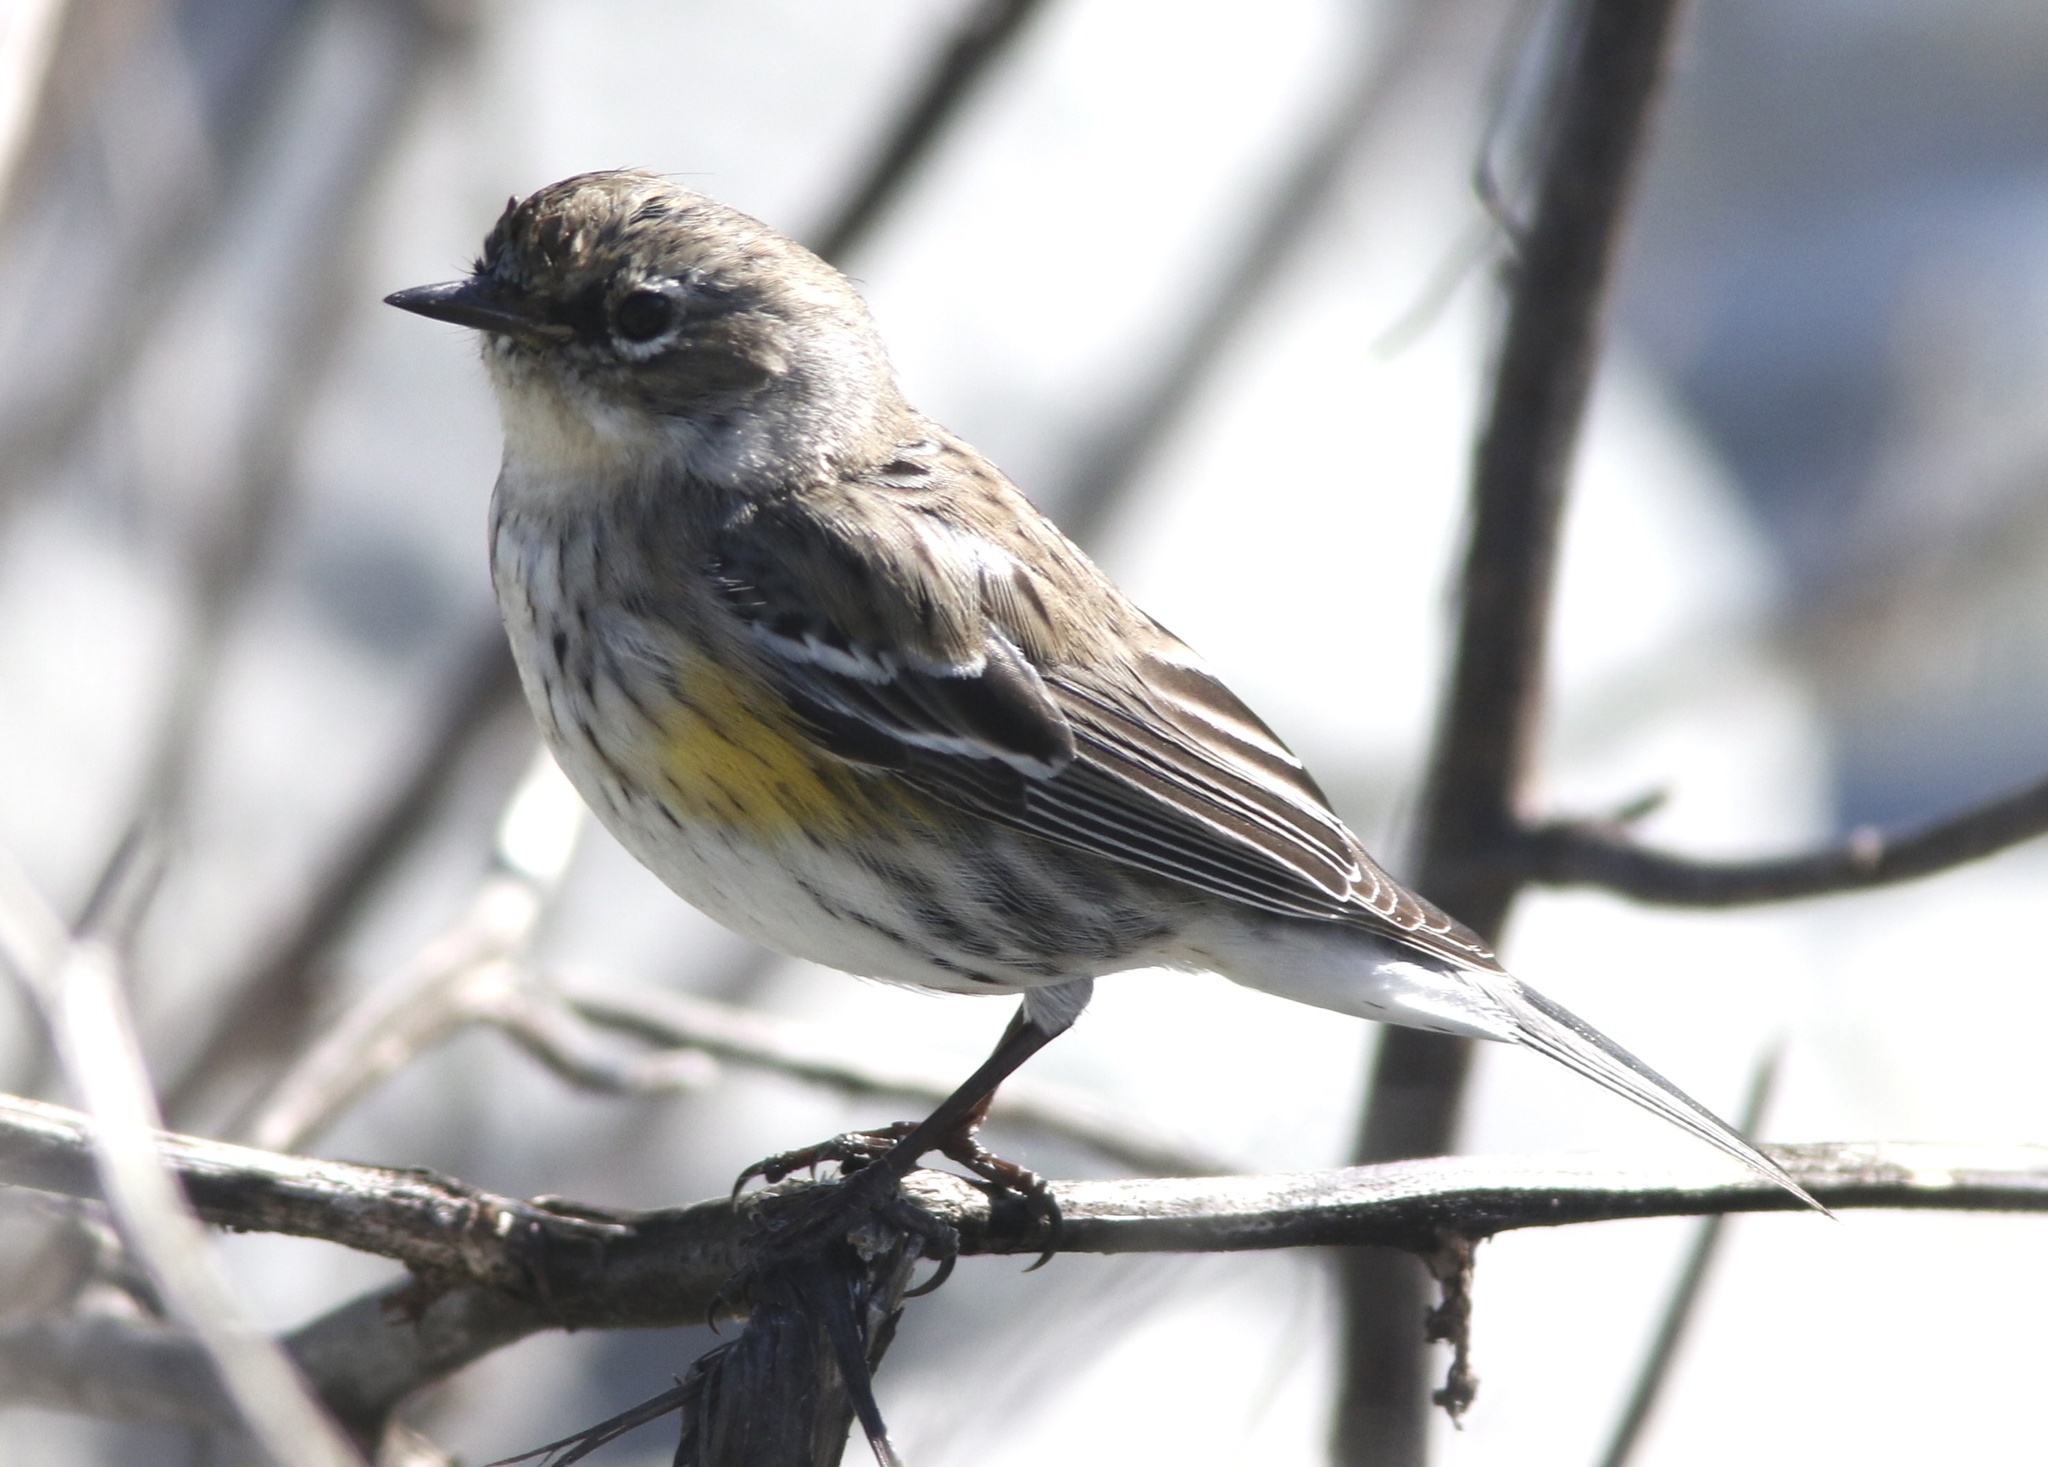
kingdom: Animalia
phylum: Chordata
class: Aves
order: Passeriformes
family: Parulidae
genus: Setophaga
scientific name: Setophaga coronata
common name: Myrtle warbler
